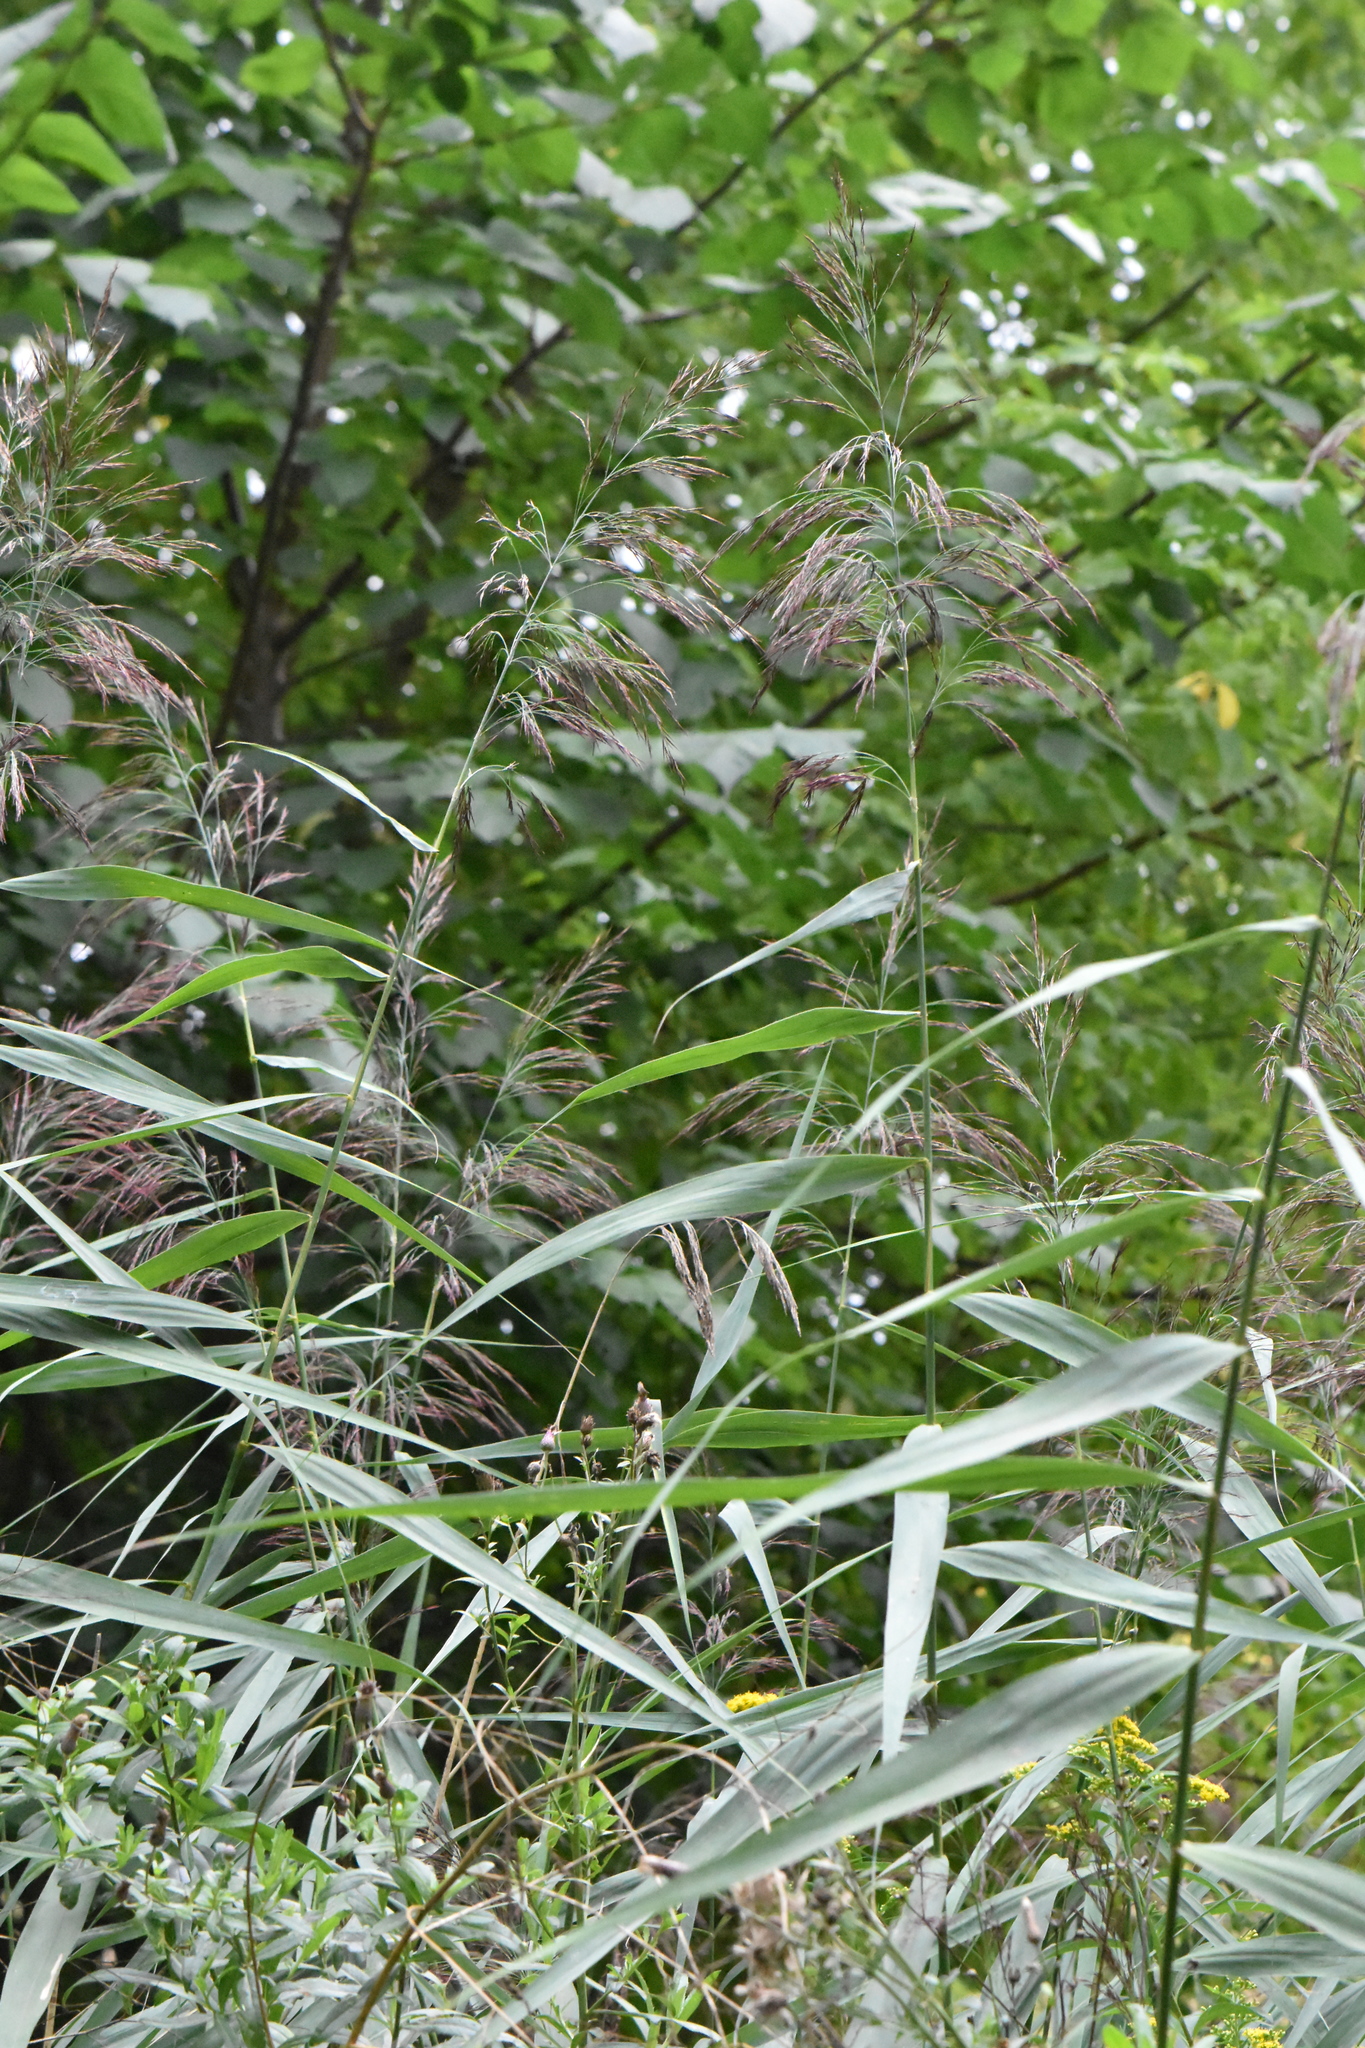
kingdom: Plantae
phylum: Tracheophyta
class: Liliopsida
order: Poales
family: Poaceae
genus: Phragmites
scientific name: Phragmites australis
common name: Common reed
